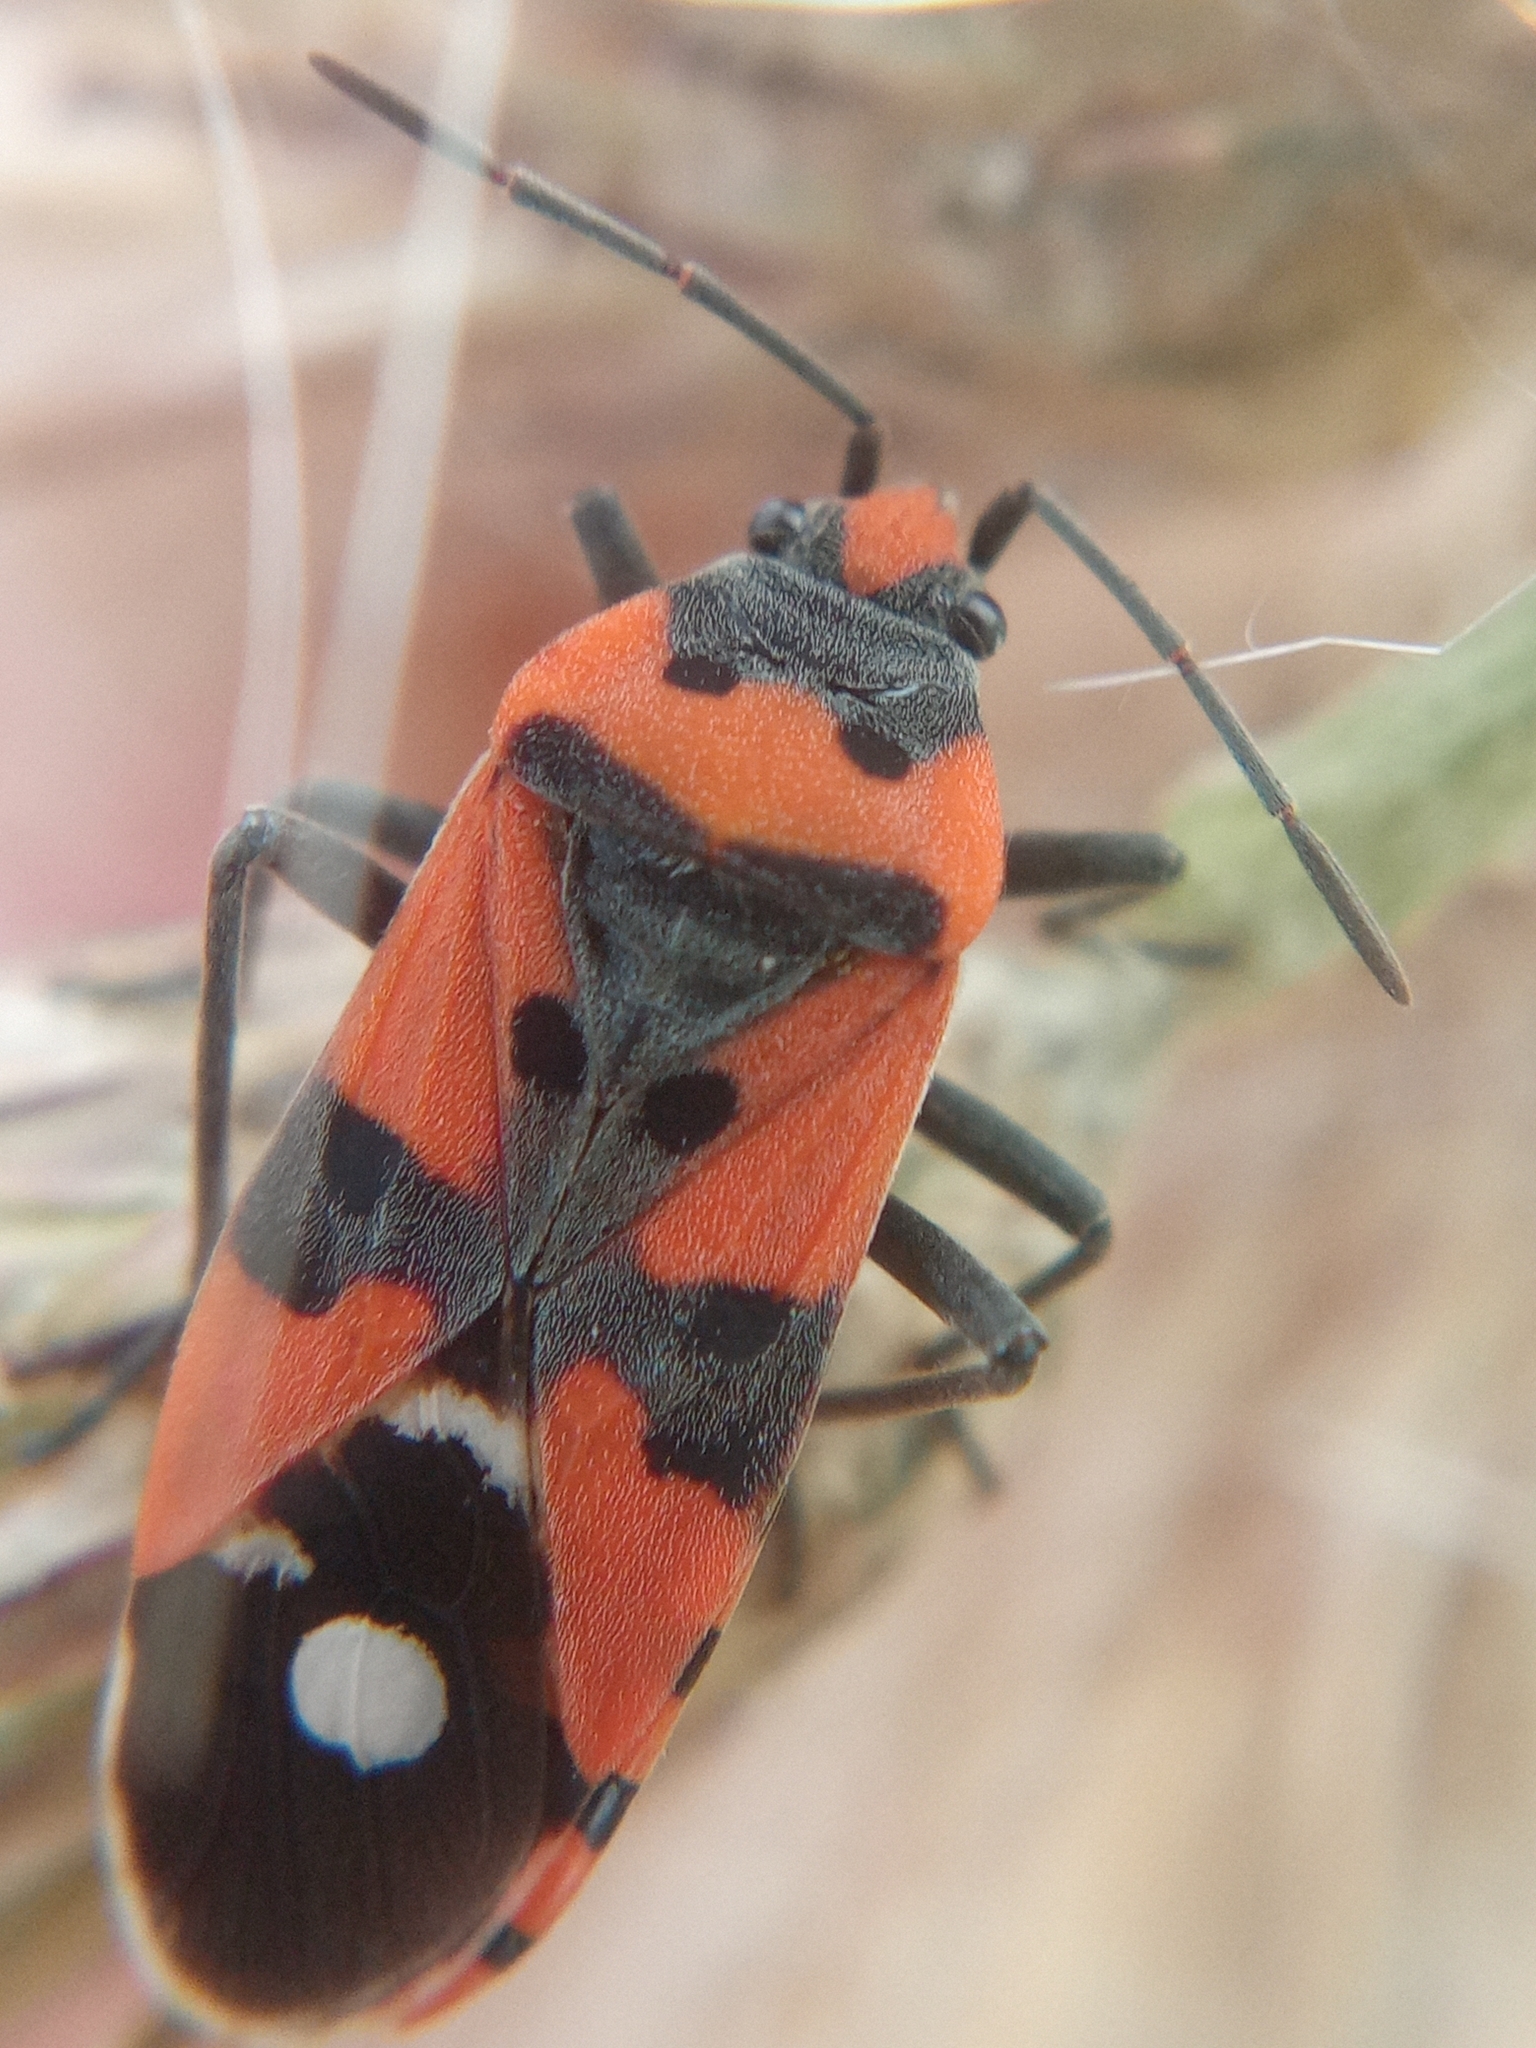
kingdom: Animalia
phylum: Arthropoda
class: Insecta
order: Hemiptera
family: Lygaeidae
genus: Lygaeus
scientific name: Lygaeus equestris
